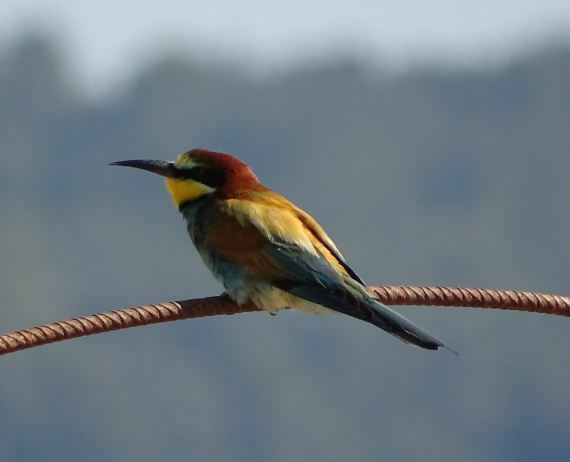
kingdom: Animalia
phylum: Chordata
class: Aves
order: Coraciiformes
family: Meropidae
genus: Merops
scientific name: Merops apiaster
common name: European bee-eater
